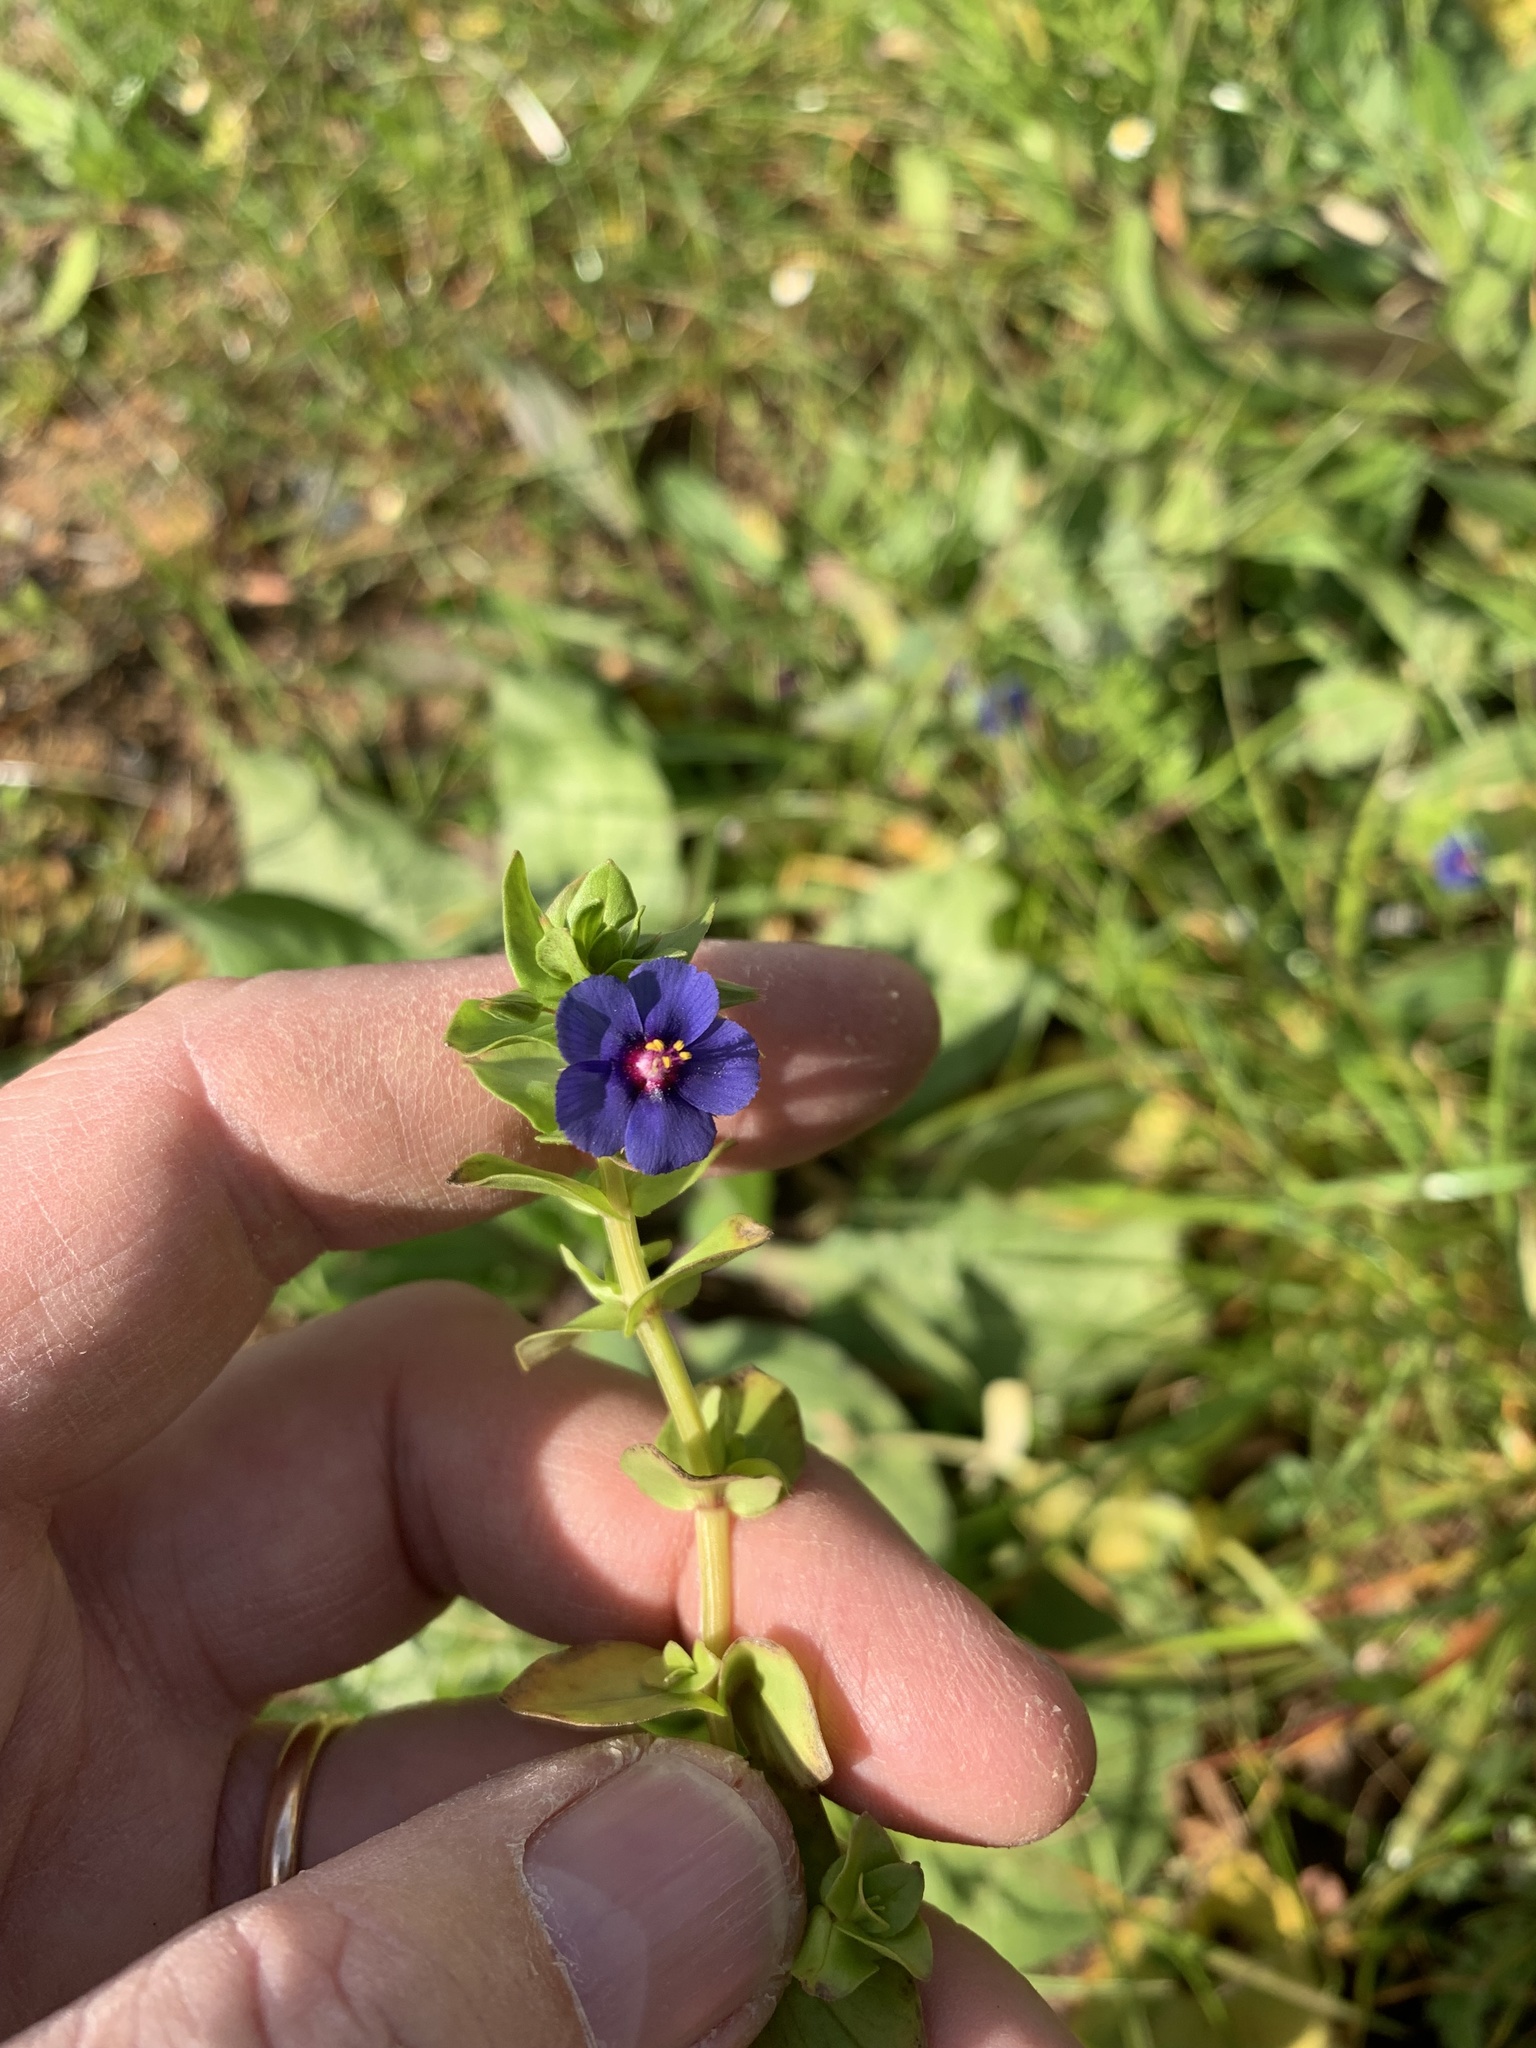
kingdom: Plantae
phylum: Tracheophyta
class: Magnoliopsida
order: Ericales
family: Primulaceae
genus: Lysimachia
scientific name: Lysimachia loeflingii
